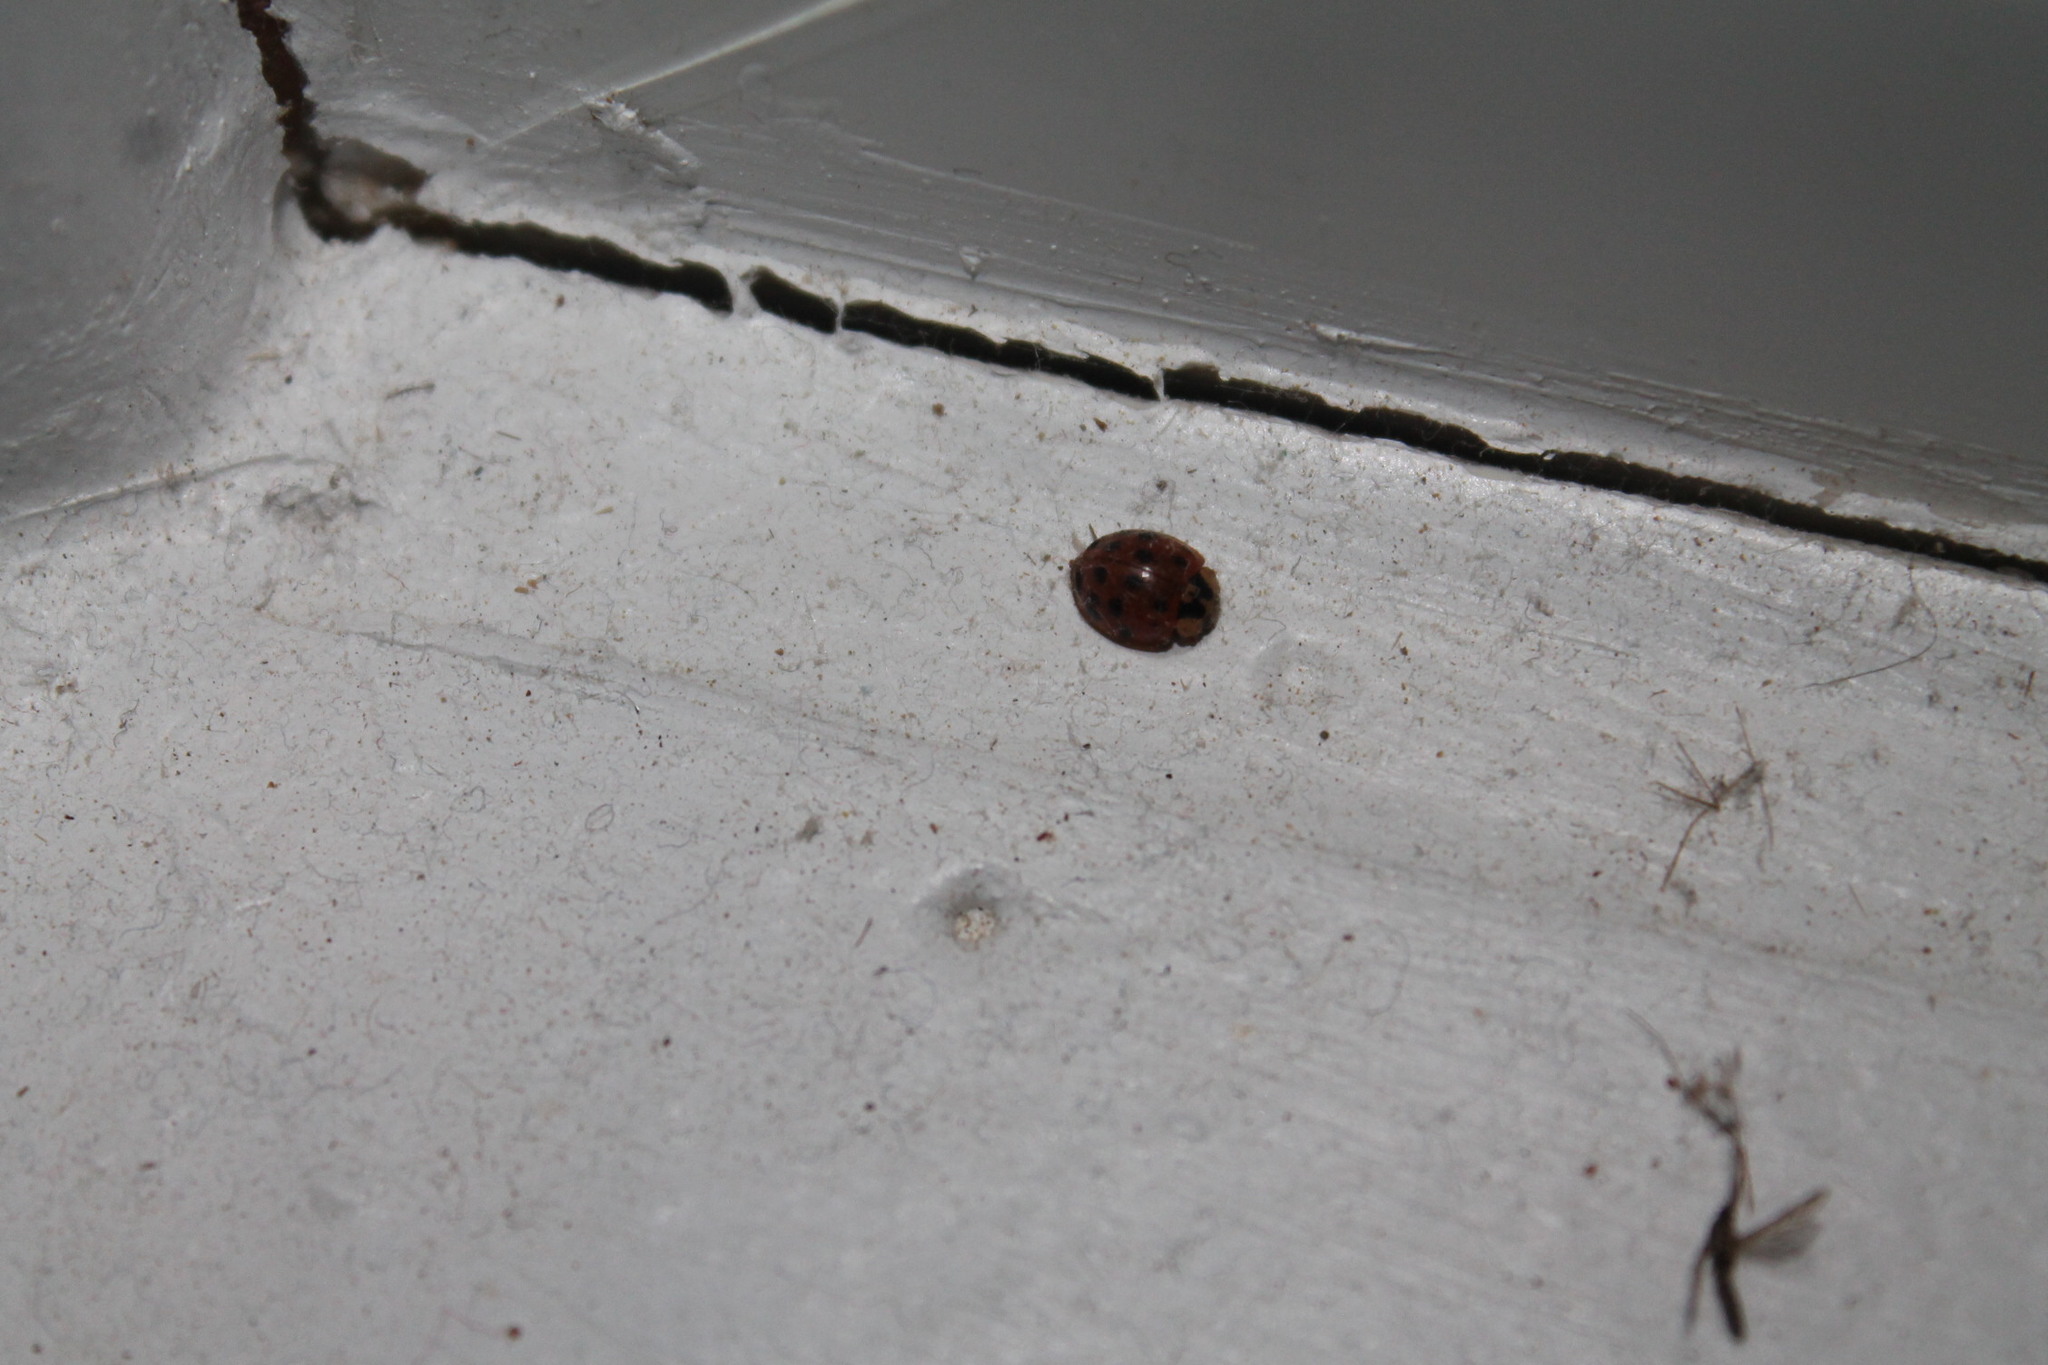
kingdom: Animalia
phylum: Arthropoda
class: Insecta
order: Coleoptera
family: Coccinellidae
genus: Harmonia
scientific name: Harmonia axyridis
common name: Harlequin ladybird
